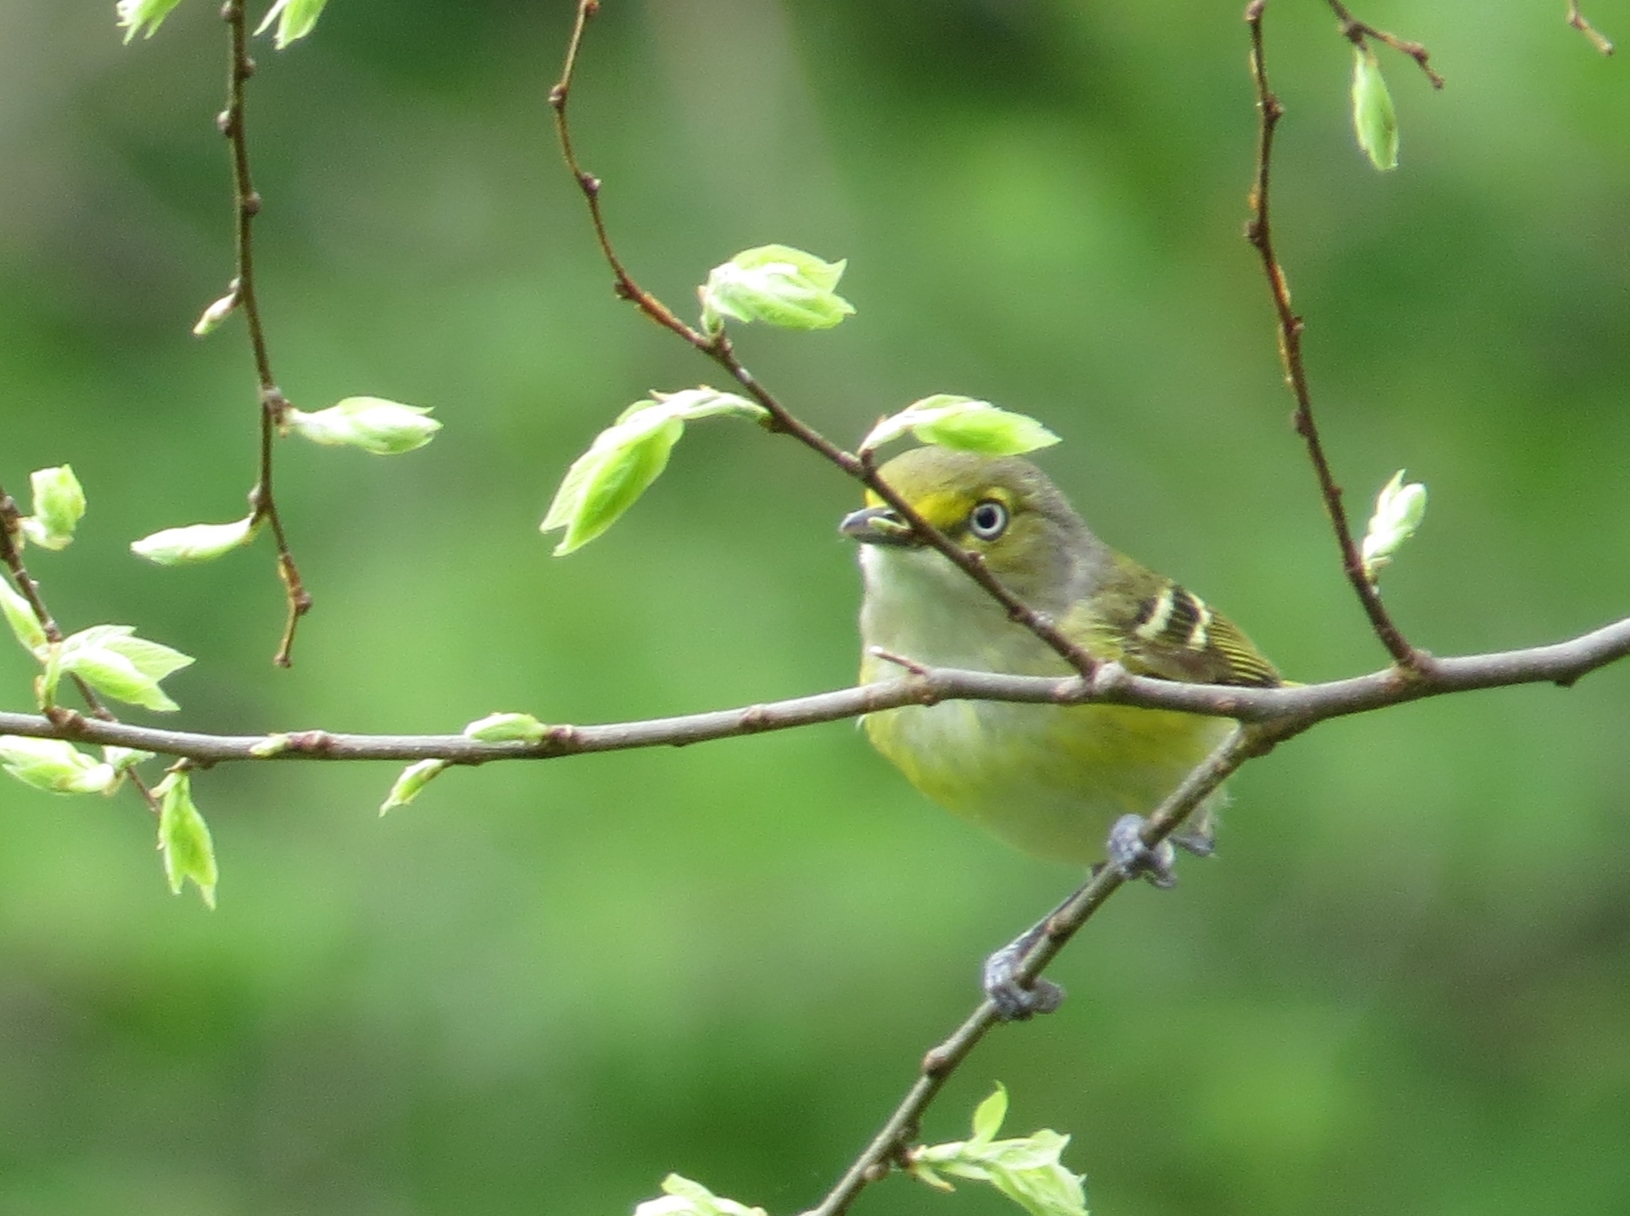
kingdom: Animalia
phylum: Chordata
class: Aves
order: Passeriformes
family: Vireonidae
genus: Vireo
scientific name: Vireo griseus
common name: White-eyed vireo
